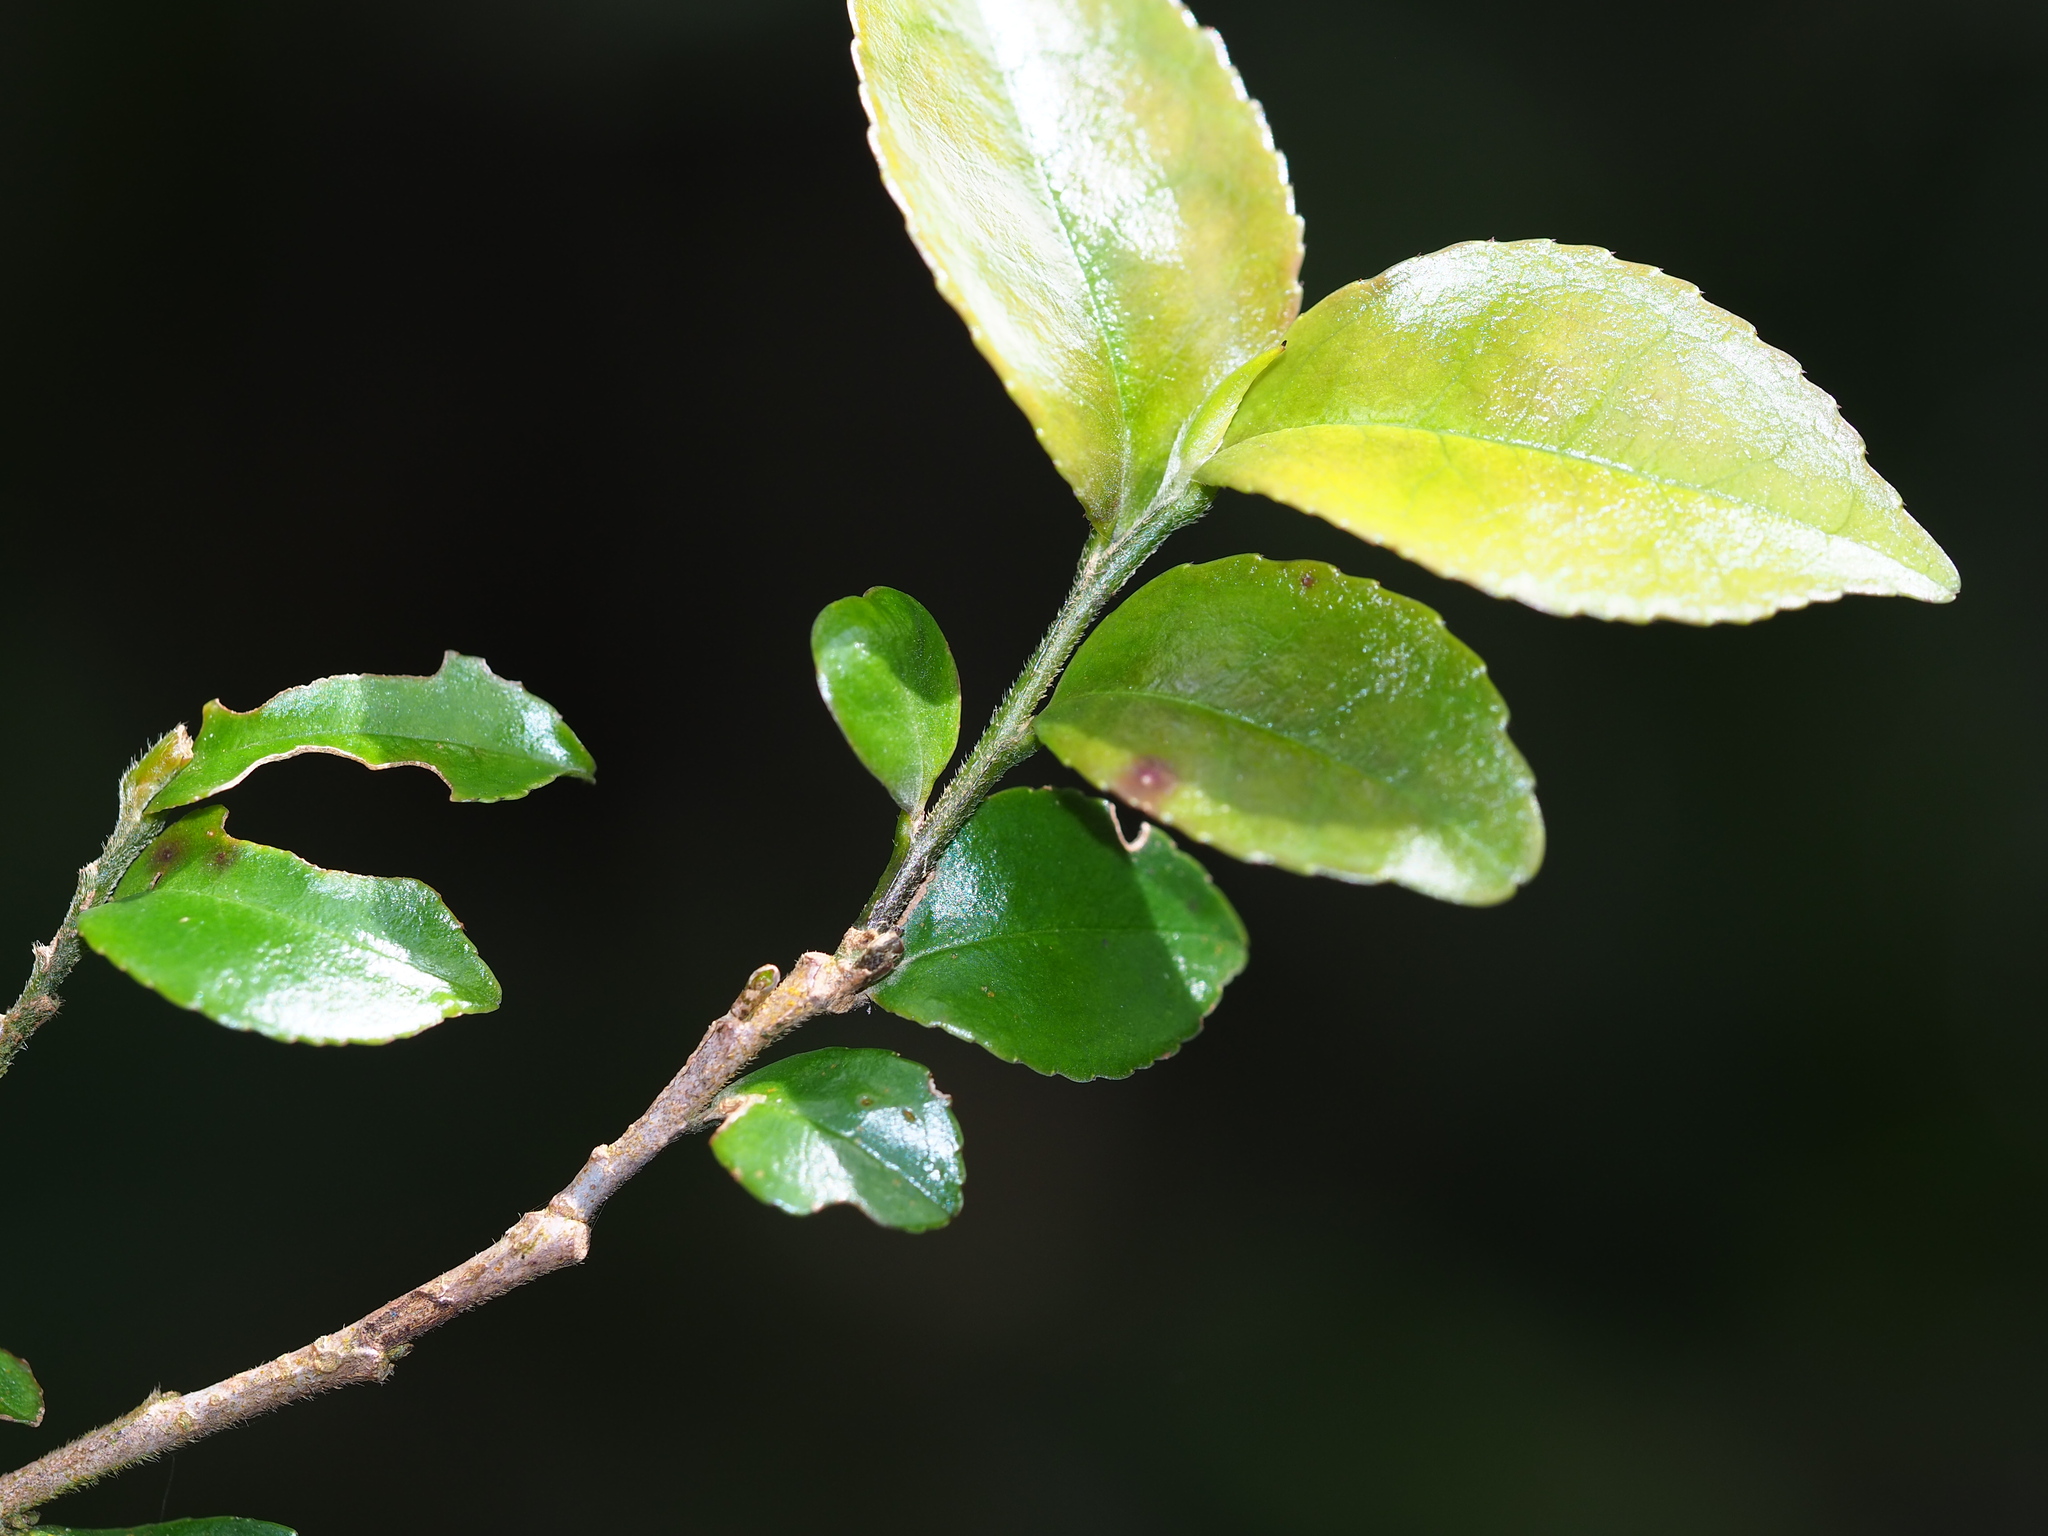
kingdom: Plantae
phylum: Tracheophyta
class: Magnoliopsida
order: Ericales
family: Pentaphylacaceae
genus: Eurya
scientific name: Eurya leptophylla
